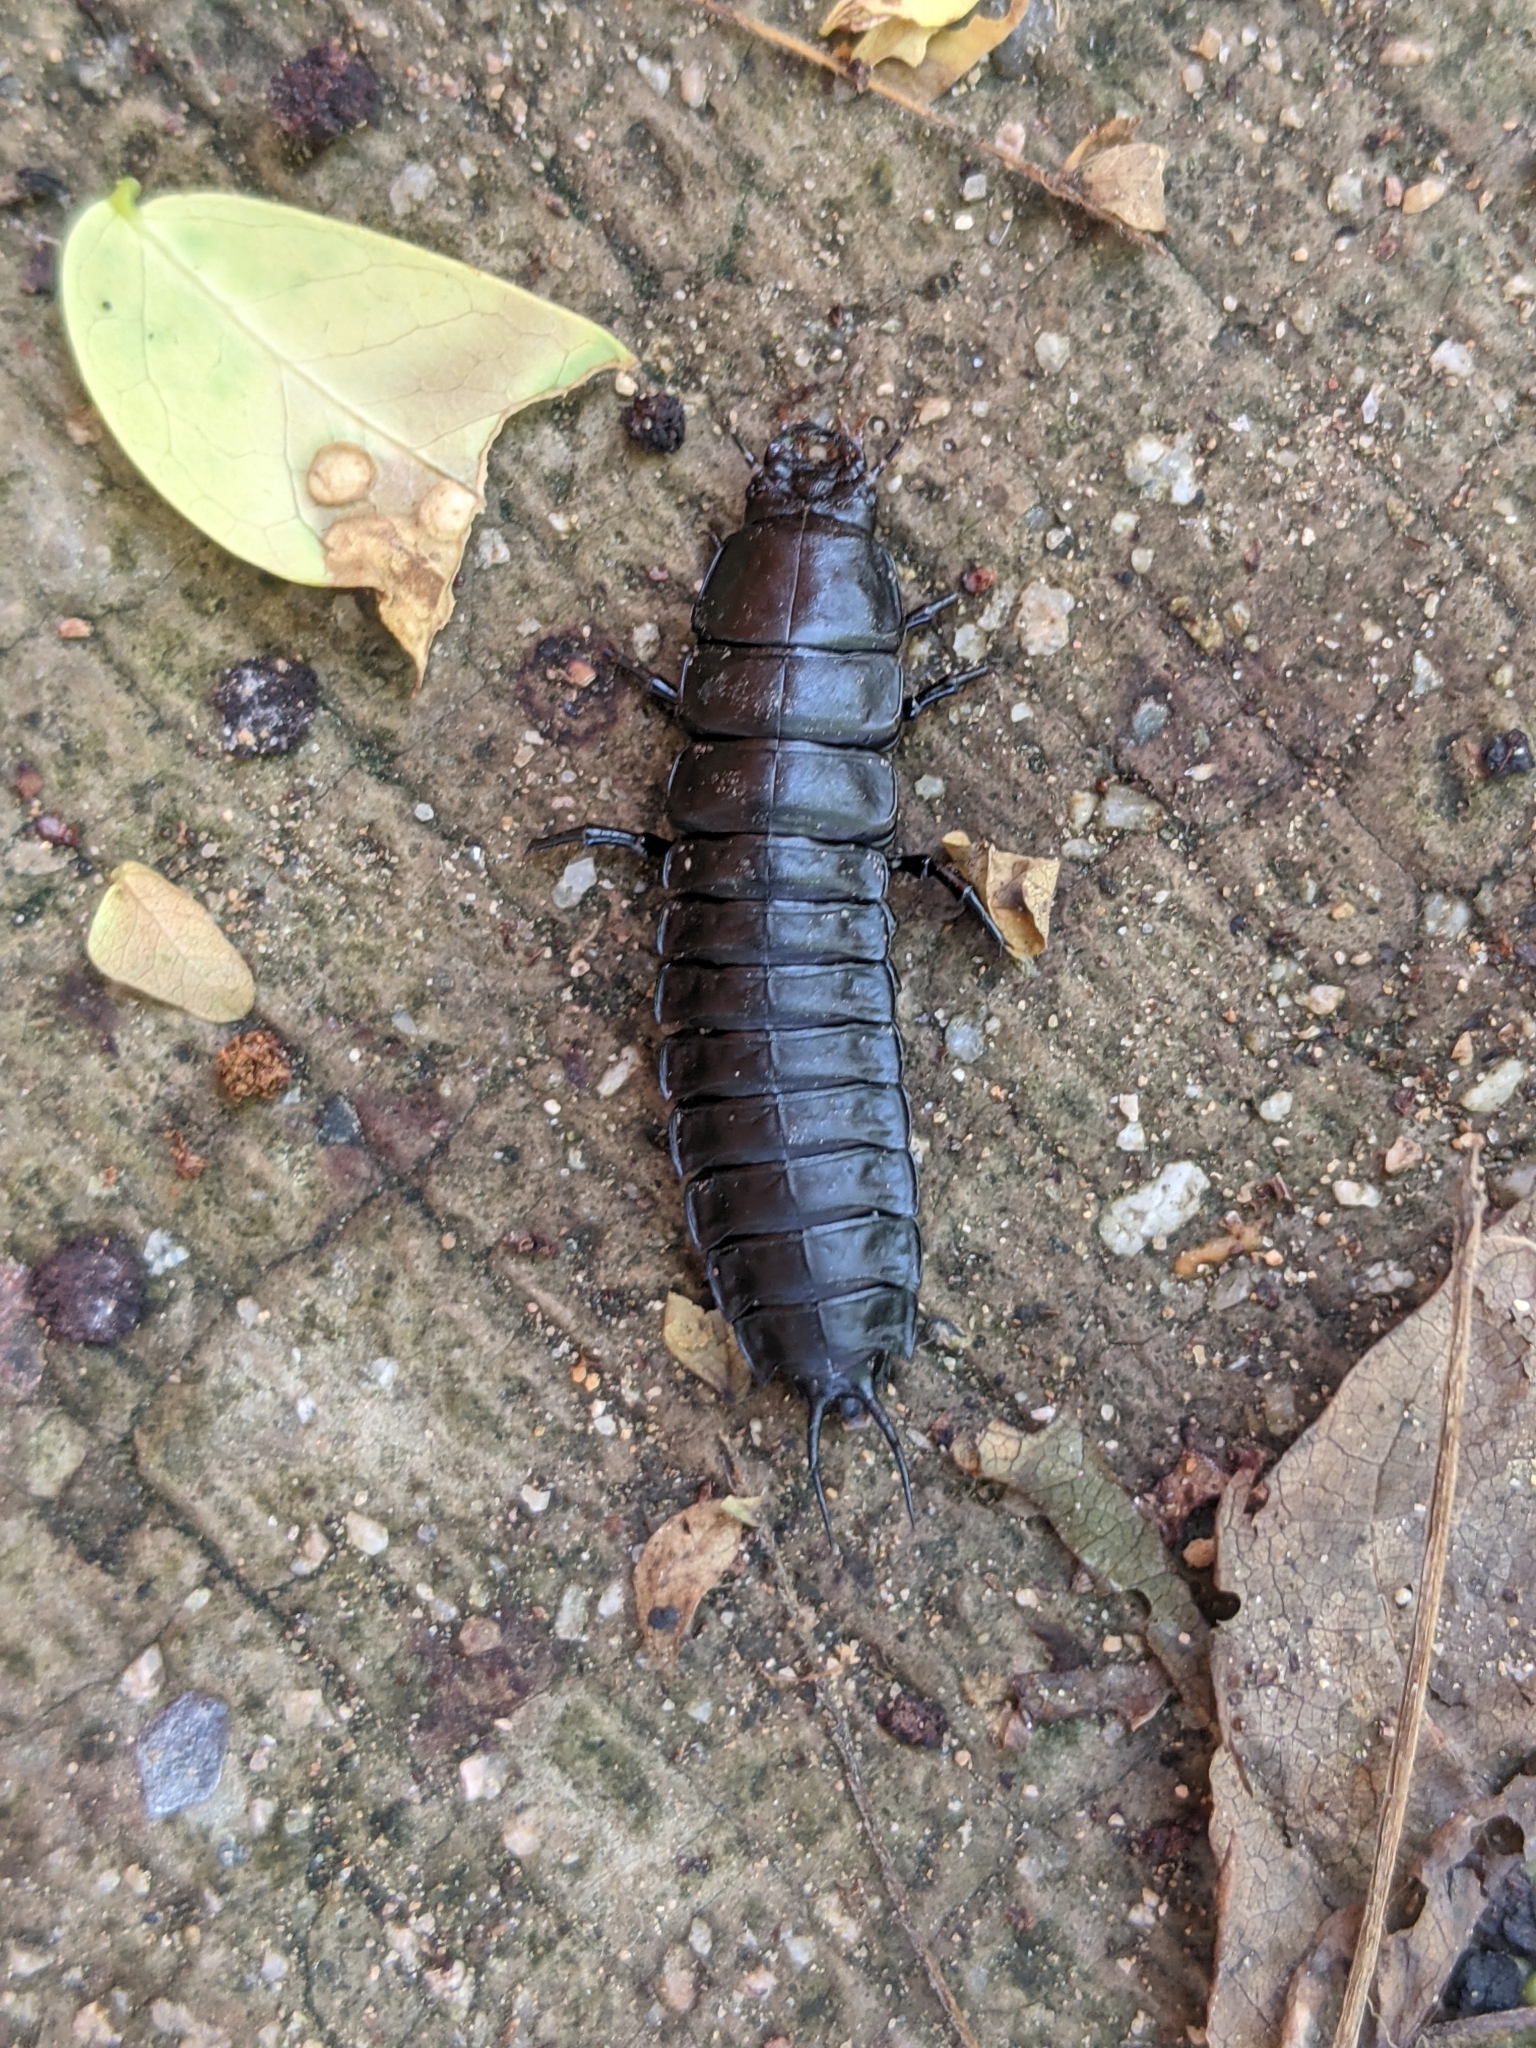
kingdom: Animalia
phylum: Arthropoda
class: Insecta
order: Coleoptera
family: Carabidae
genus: Calosoma
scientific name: Calosoma
